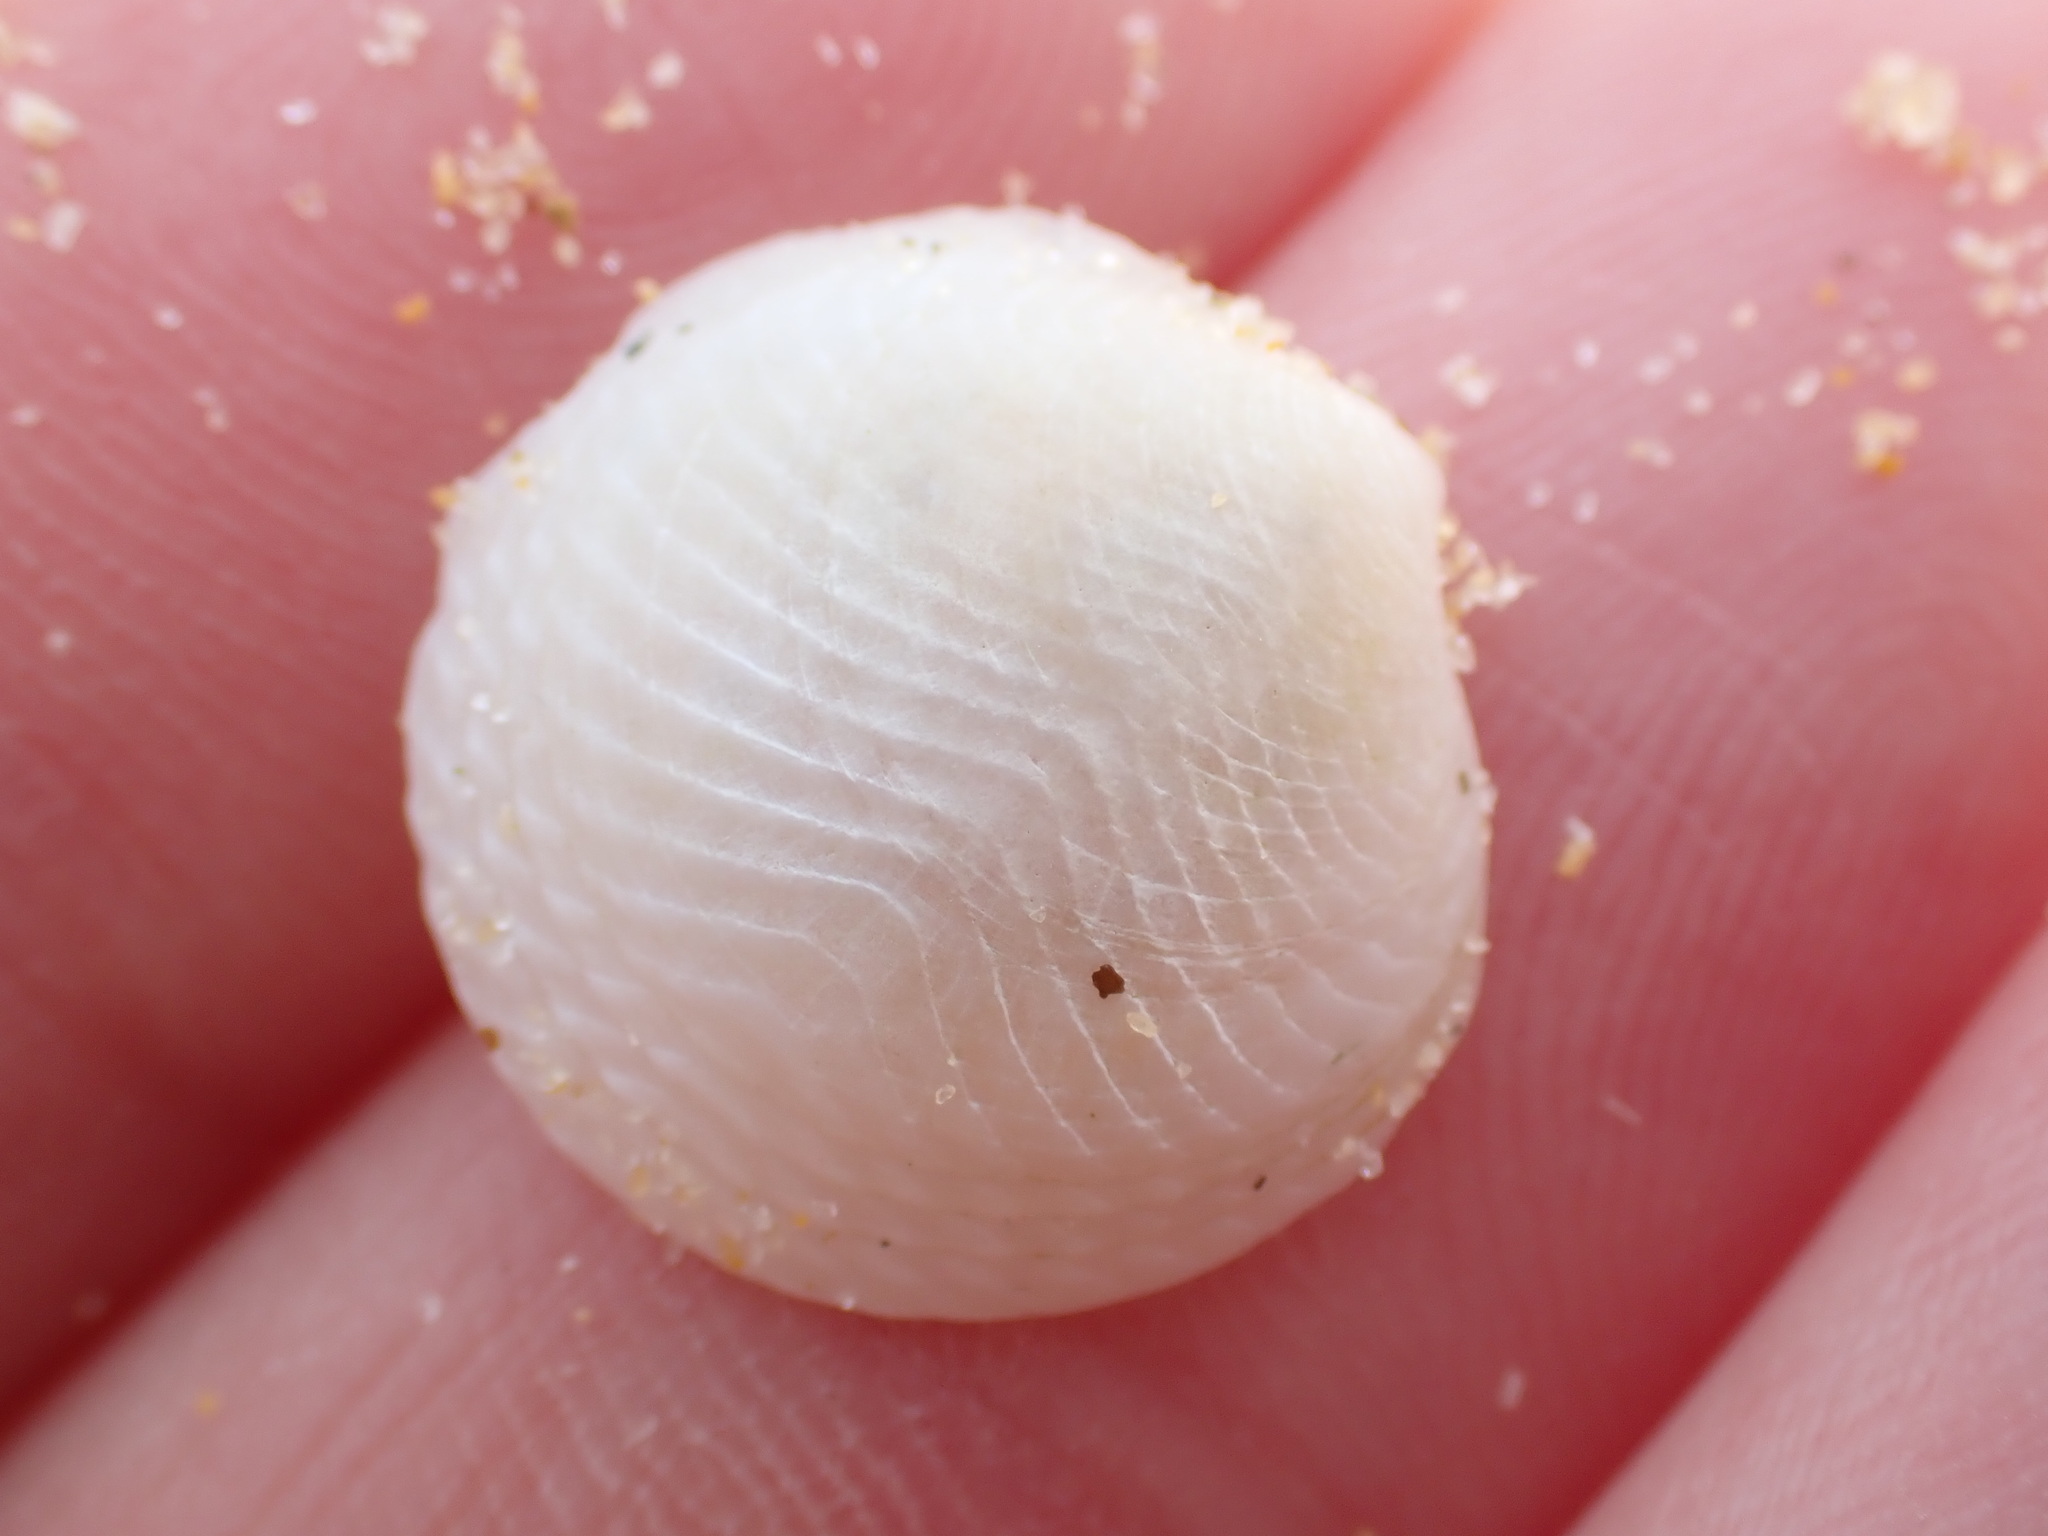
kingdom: Animalia
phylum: Mollusca
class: Bivalvia
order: Lucinida
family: Lucinidae
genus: Divalucina
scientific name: Divalucina cumingi
